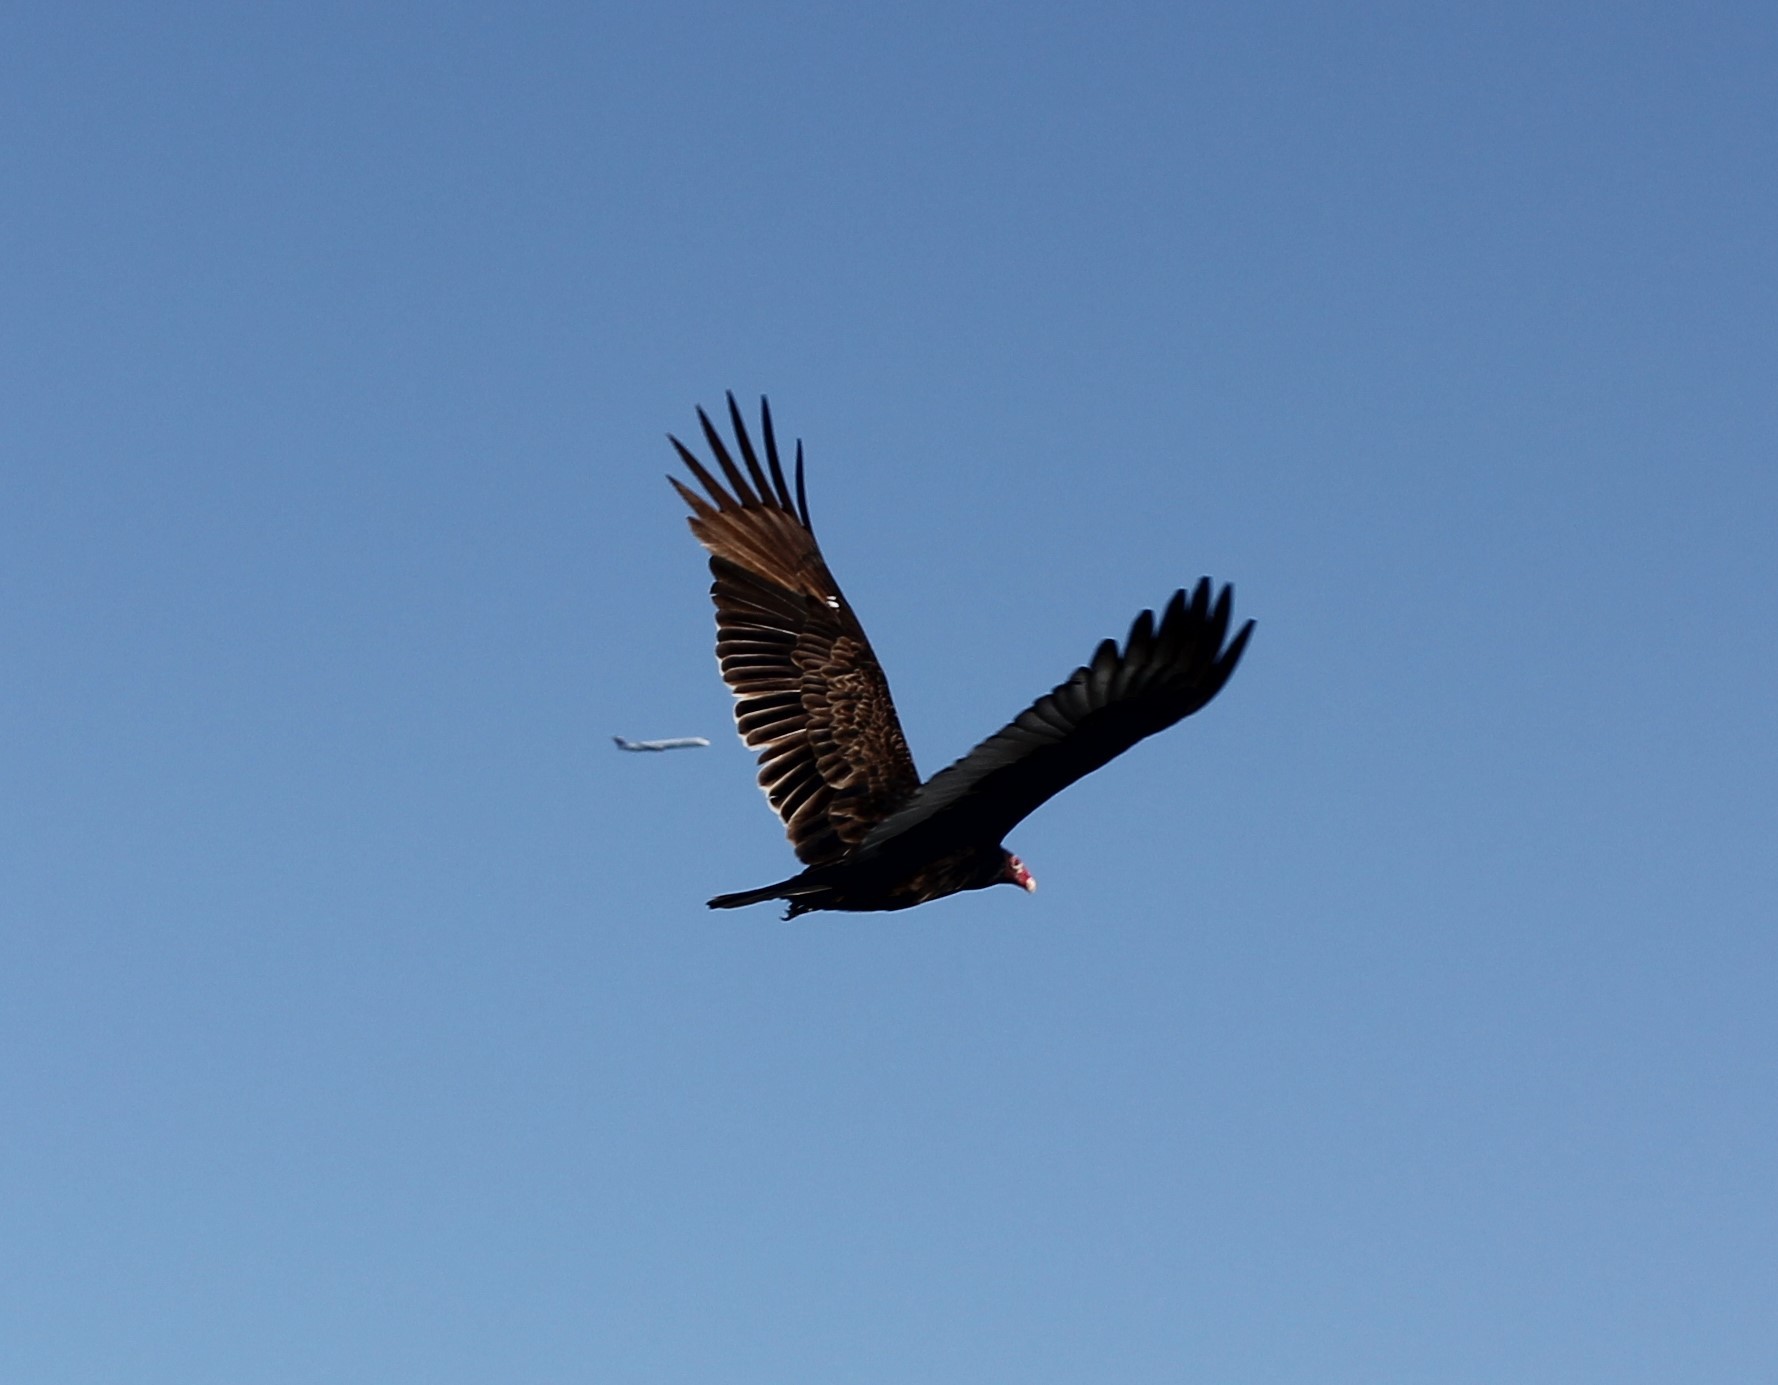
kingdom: Animalia
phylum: Chordata
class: Aves
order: Accipitriformes
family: Cathartidae
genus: Cathartes
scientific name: Cathartes aura
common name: Turkey vulture
